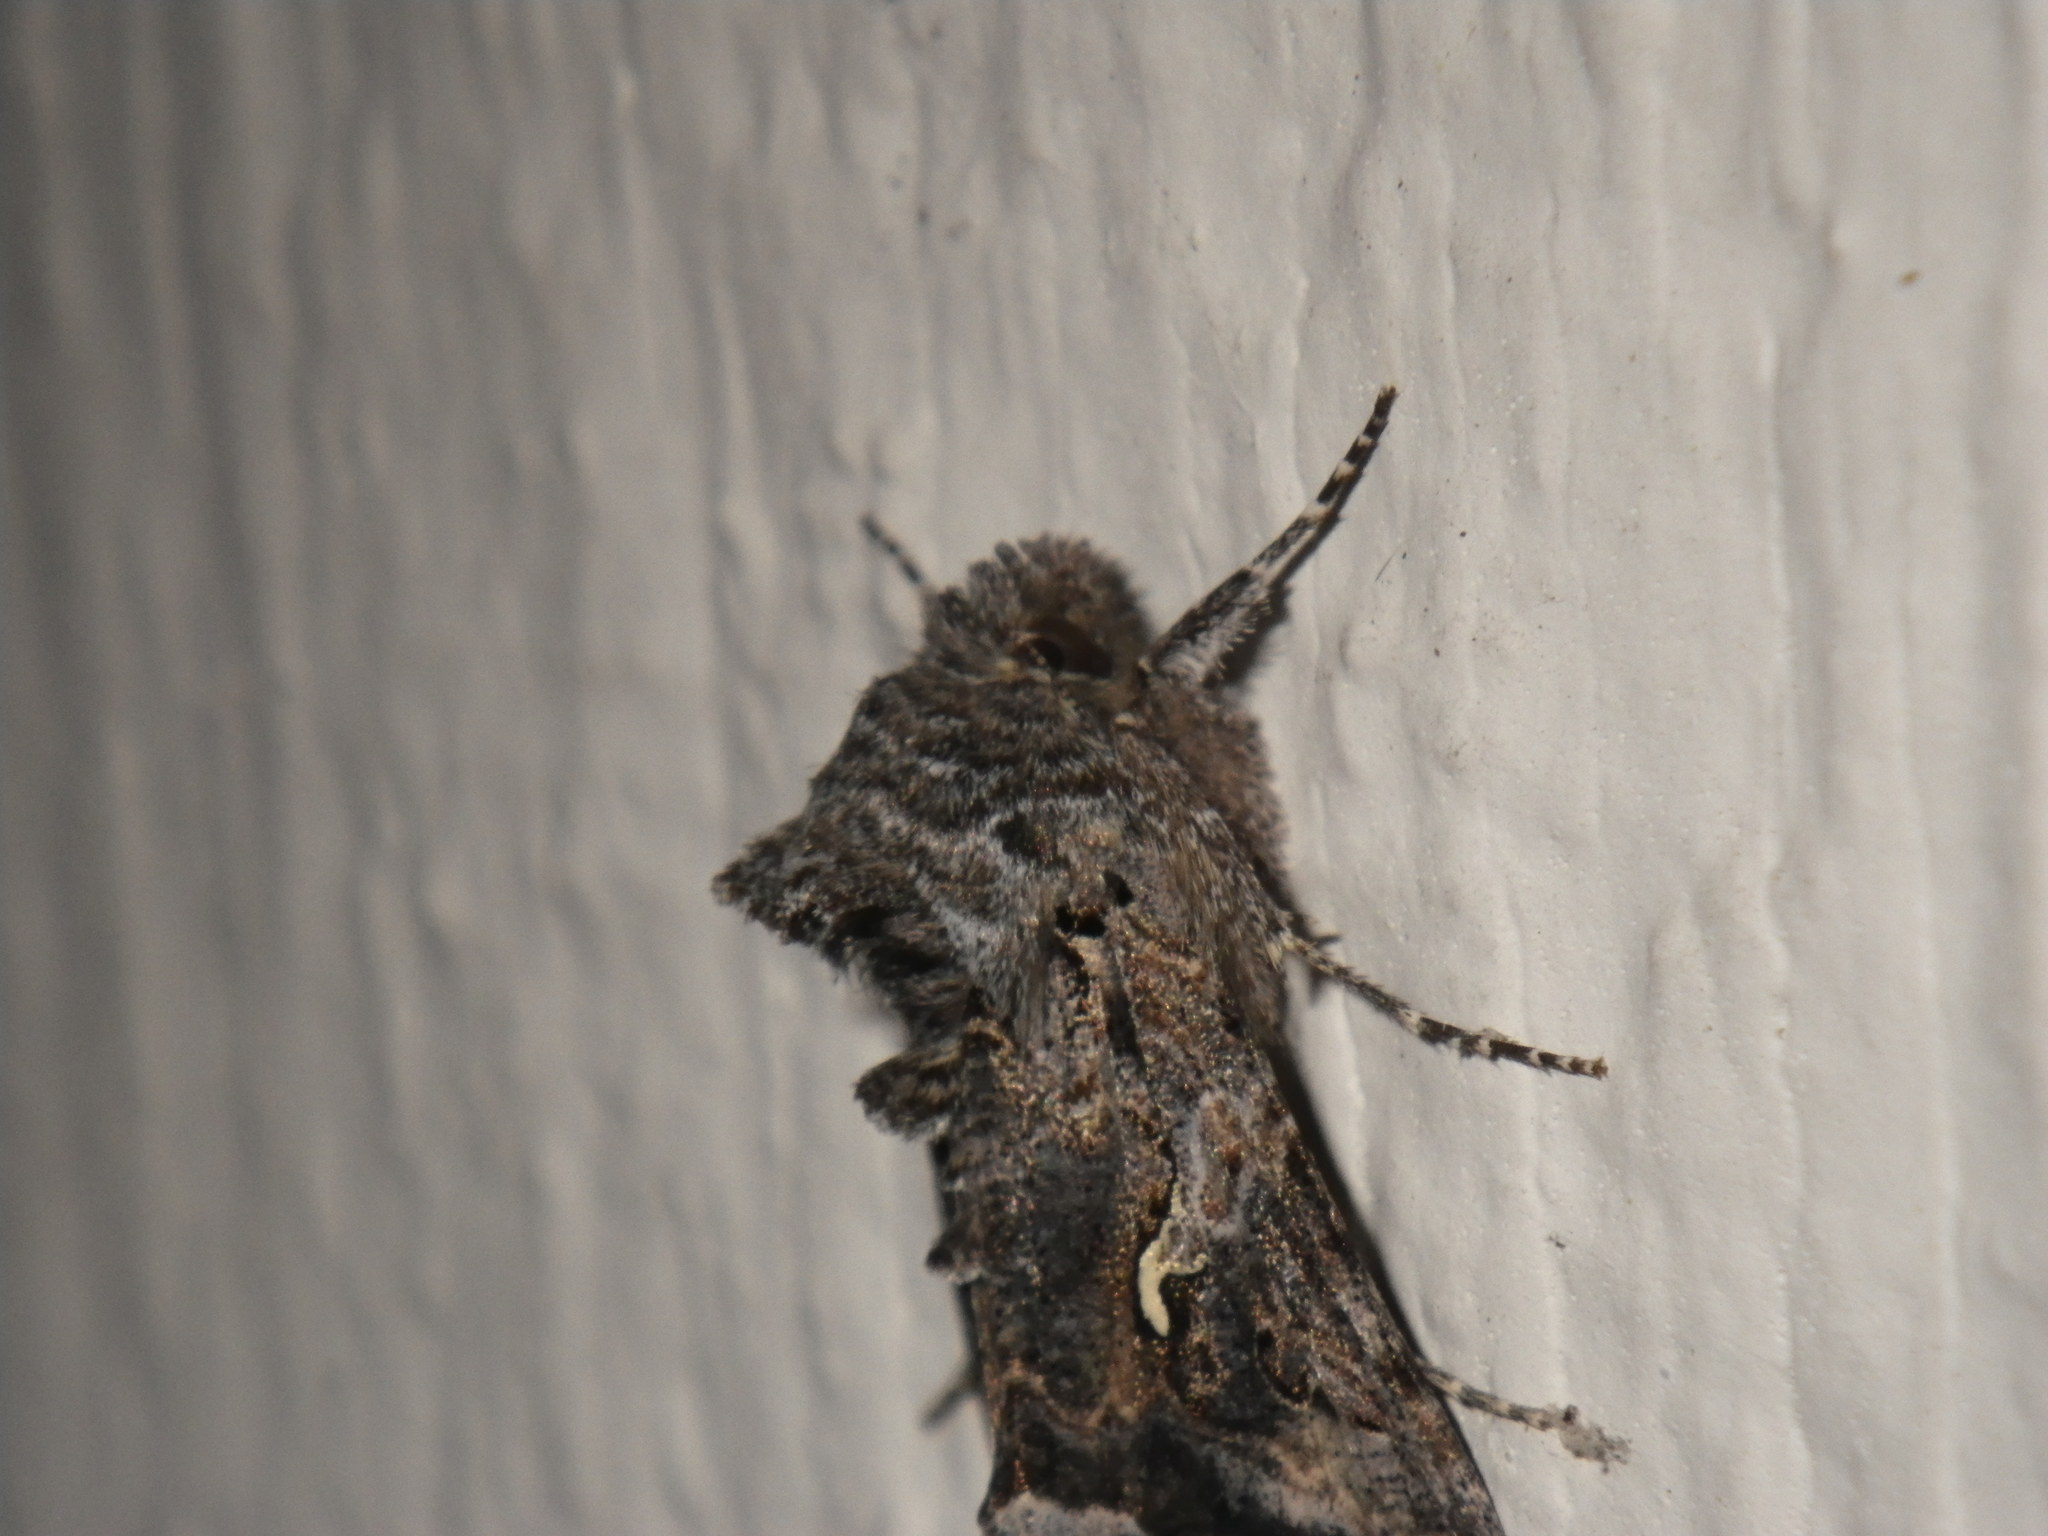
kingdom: Animalia
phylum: Arthropoda
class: Insecta
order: Lepidoptera
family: Noctuidae
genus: Autographa
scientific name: Autographa californica
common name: Alfalfa looper
